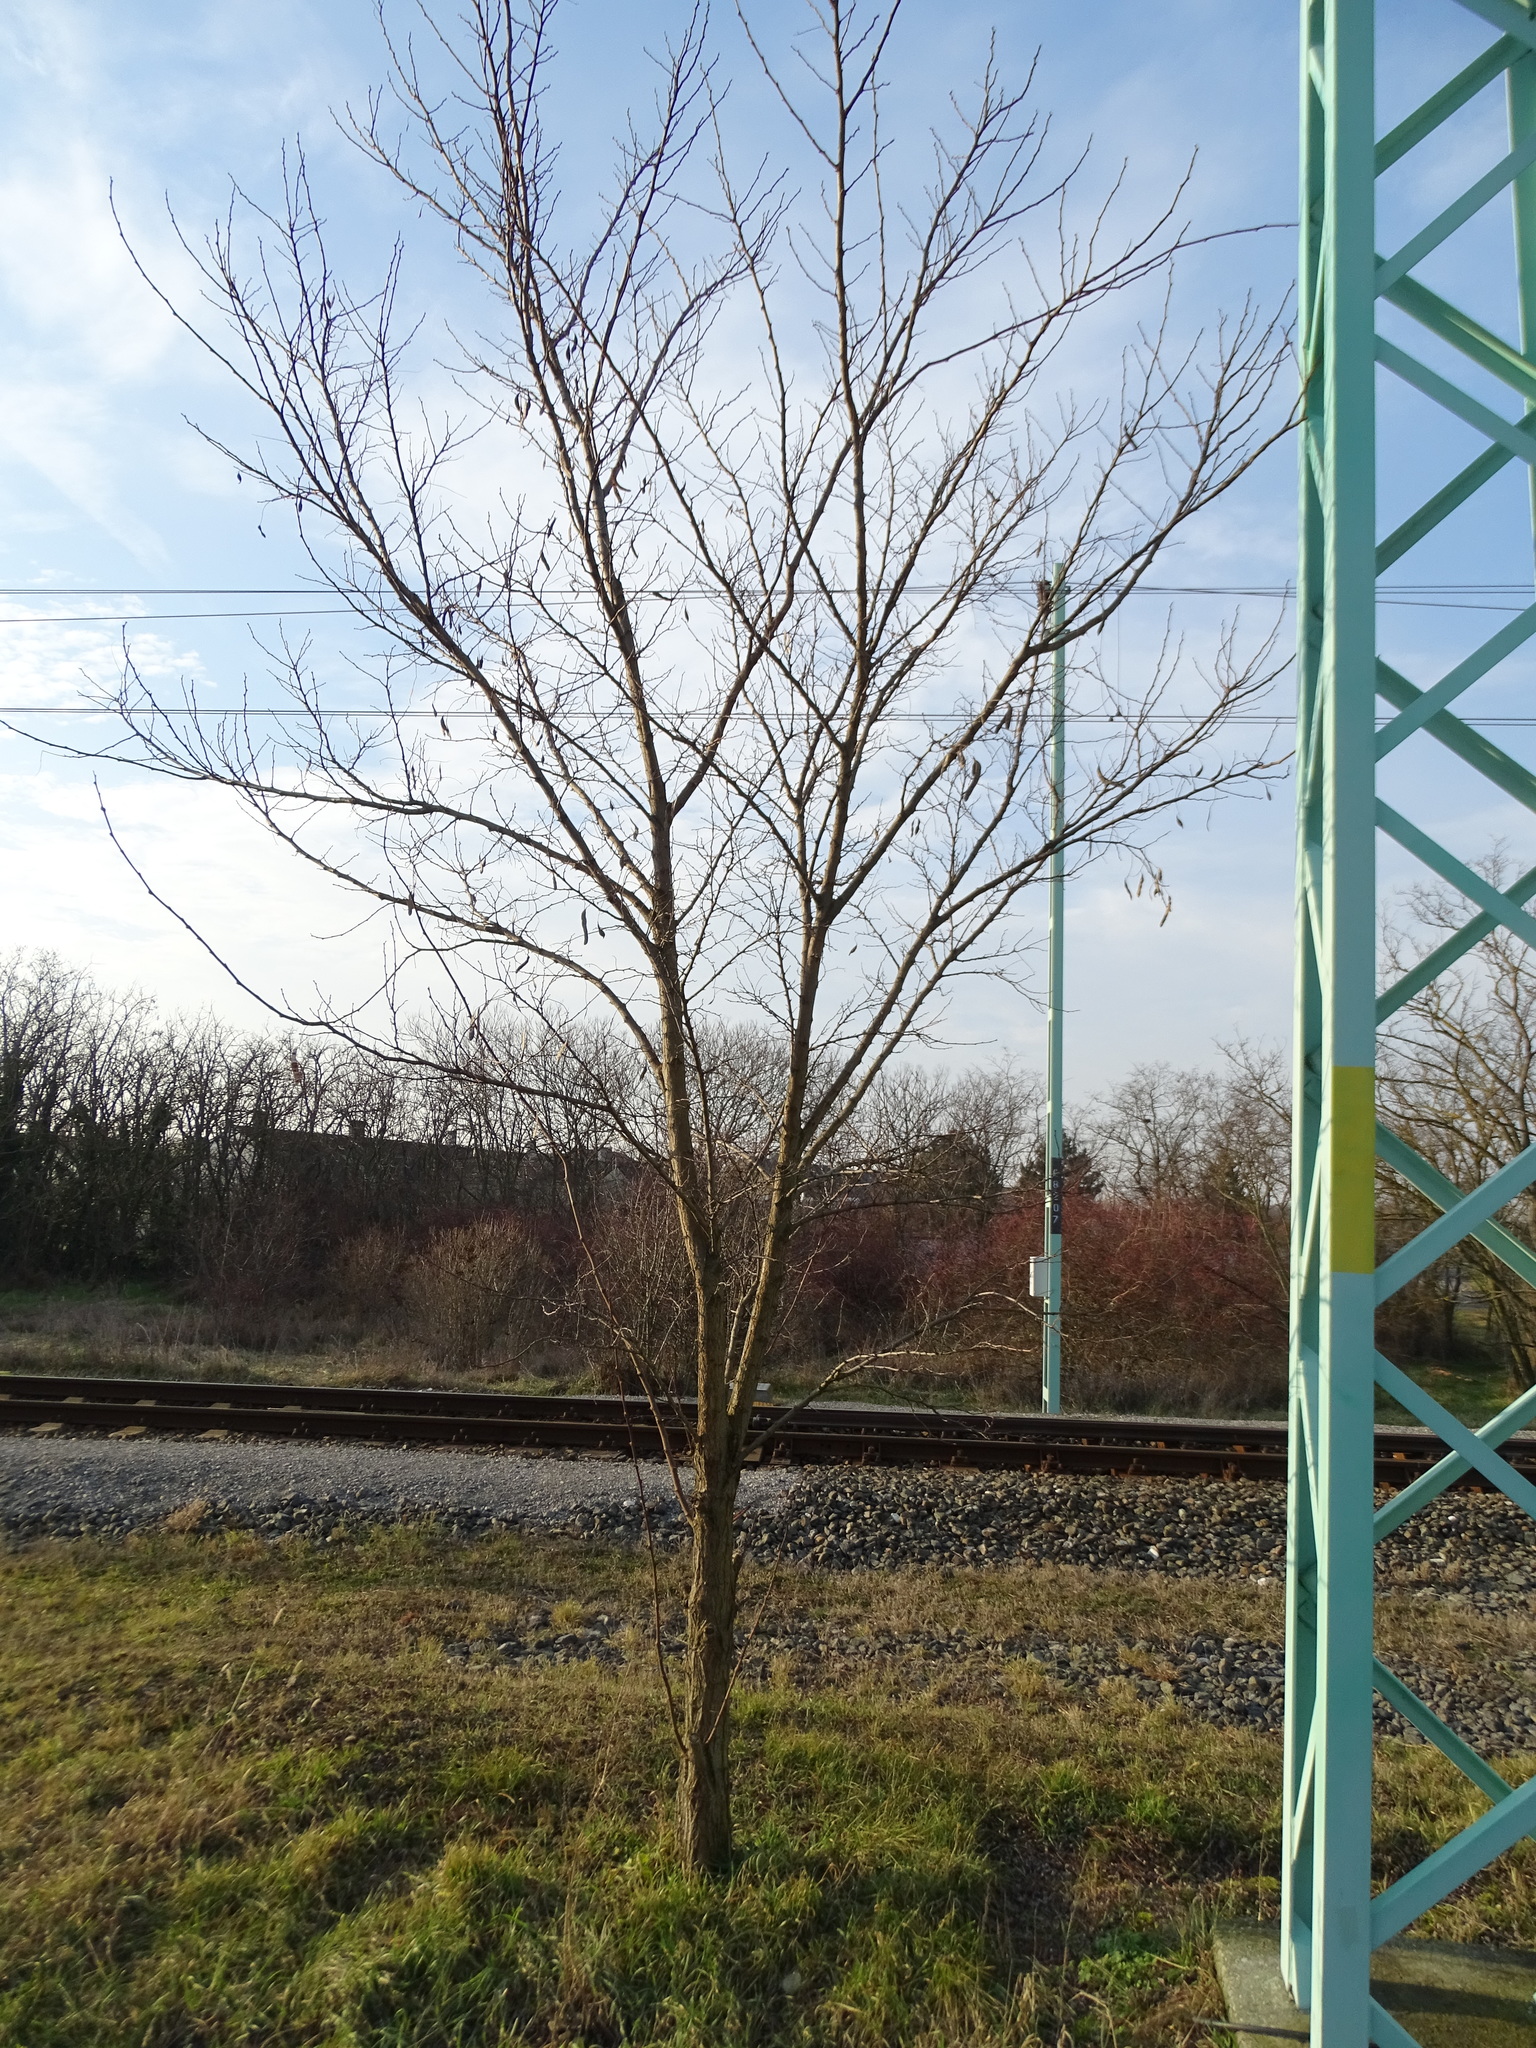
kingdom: Plantae
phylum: Tracheophyta
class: Magnoliopsida
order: Fabales
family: Fabaceae
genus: Robinia
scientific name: Robinia pseudoacacia
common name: Black locust
